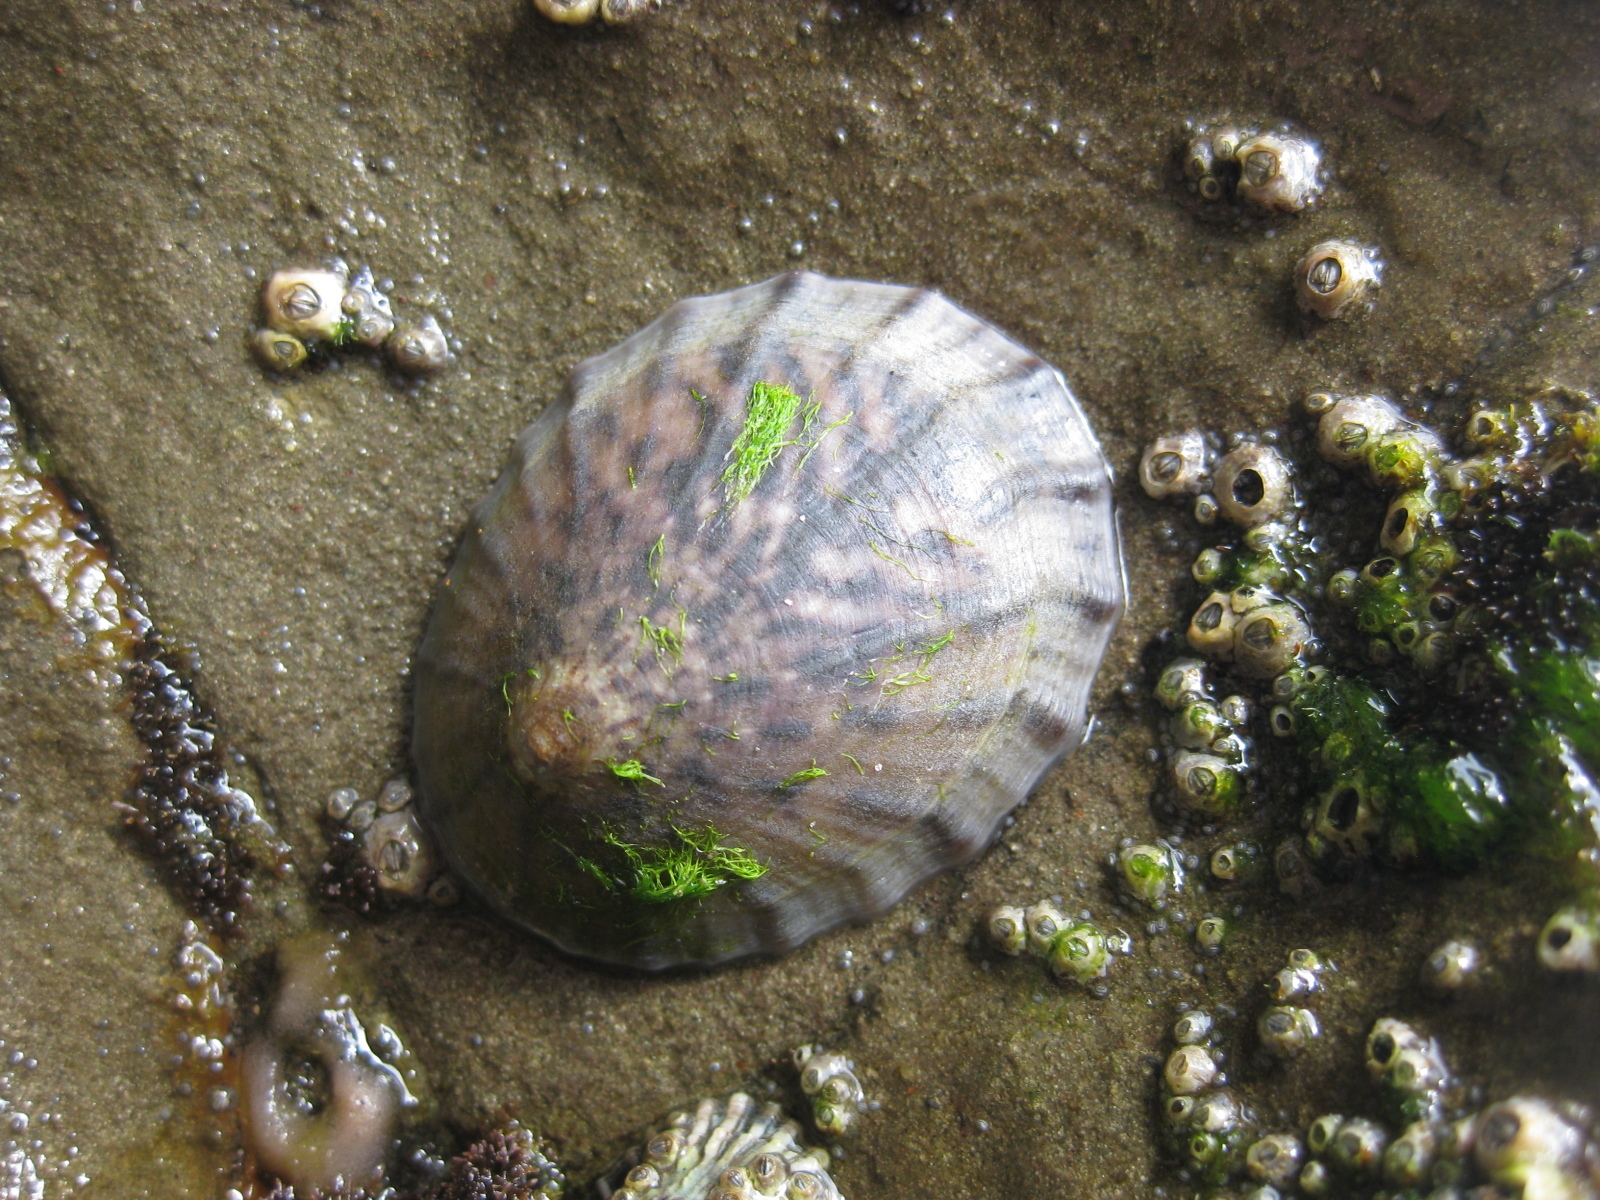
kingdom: Animalia
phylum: Mollusca
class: Gastropoda
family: Nacellidae
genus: Cellana
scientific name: Cellana radians
